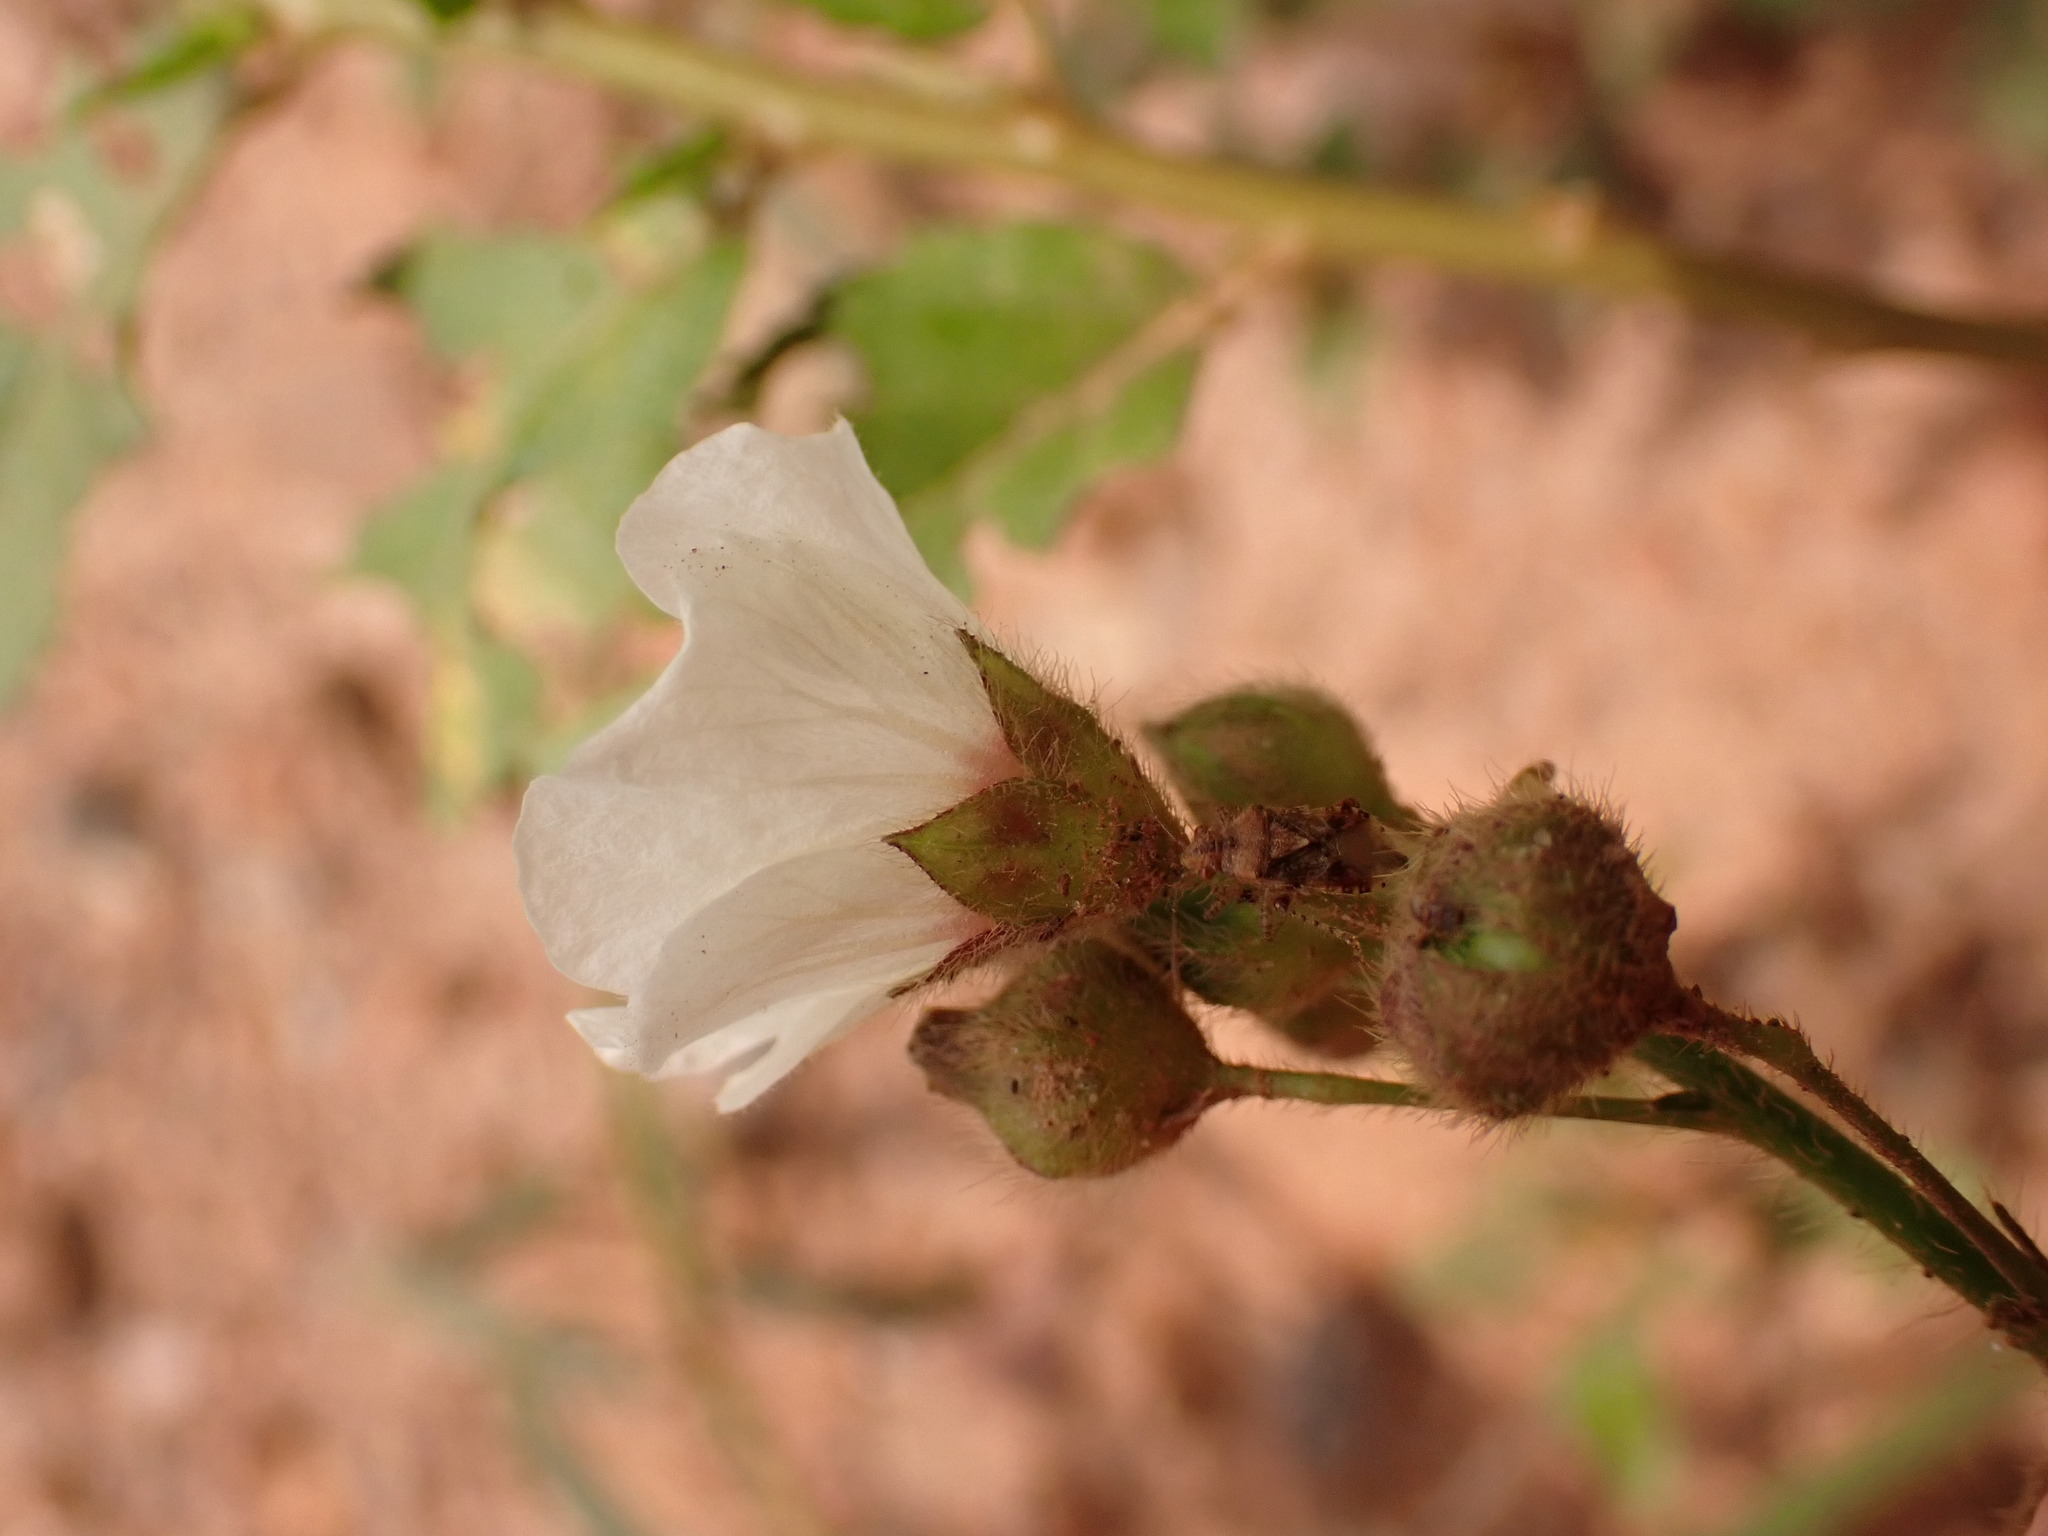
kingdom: Plantae
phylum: Tracheophyta
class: Magnoliopsida
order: Malvales
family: Malvaceae
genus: Sida
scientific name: Sida linifolia
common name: Flaxleaf fanpetals
